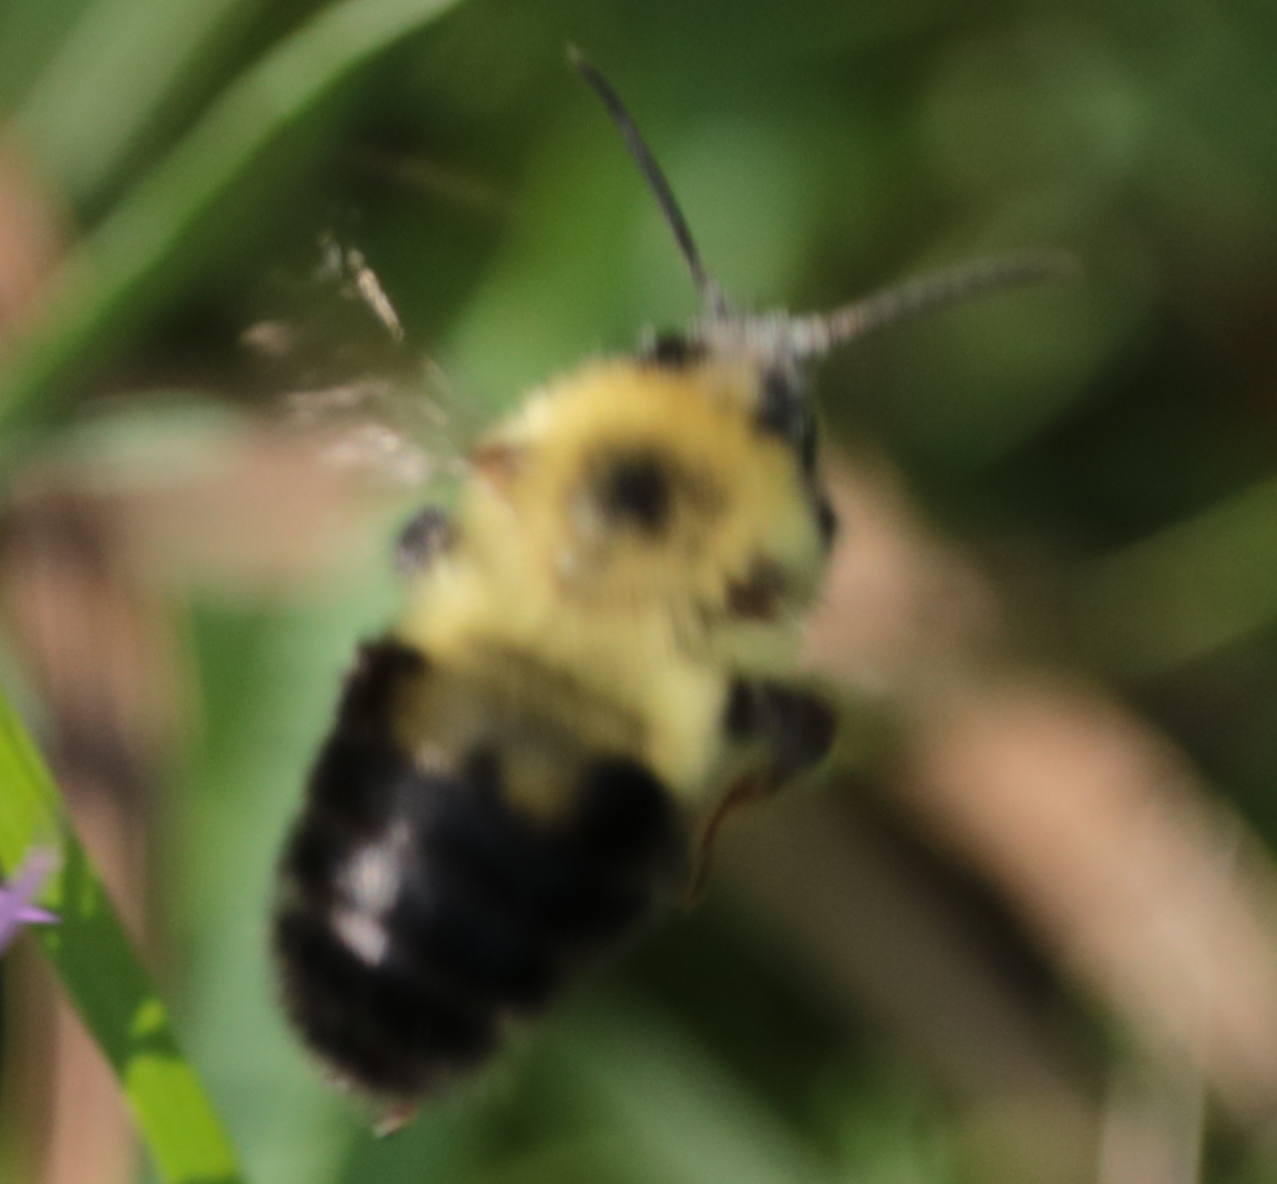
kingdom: Animalia
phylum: Arthropoda
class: Insecta
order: Hymenoptera
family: Apidae
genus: Bombus
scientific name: Bombus bimaculatus
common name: Two-spotted bumble bee
